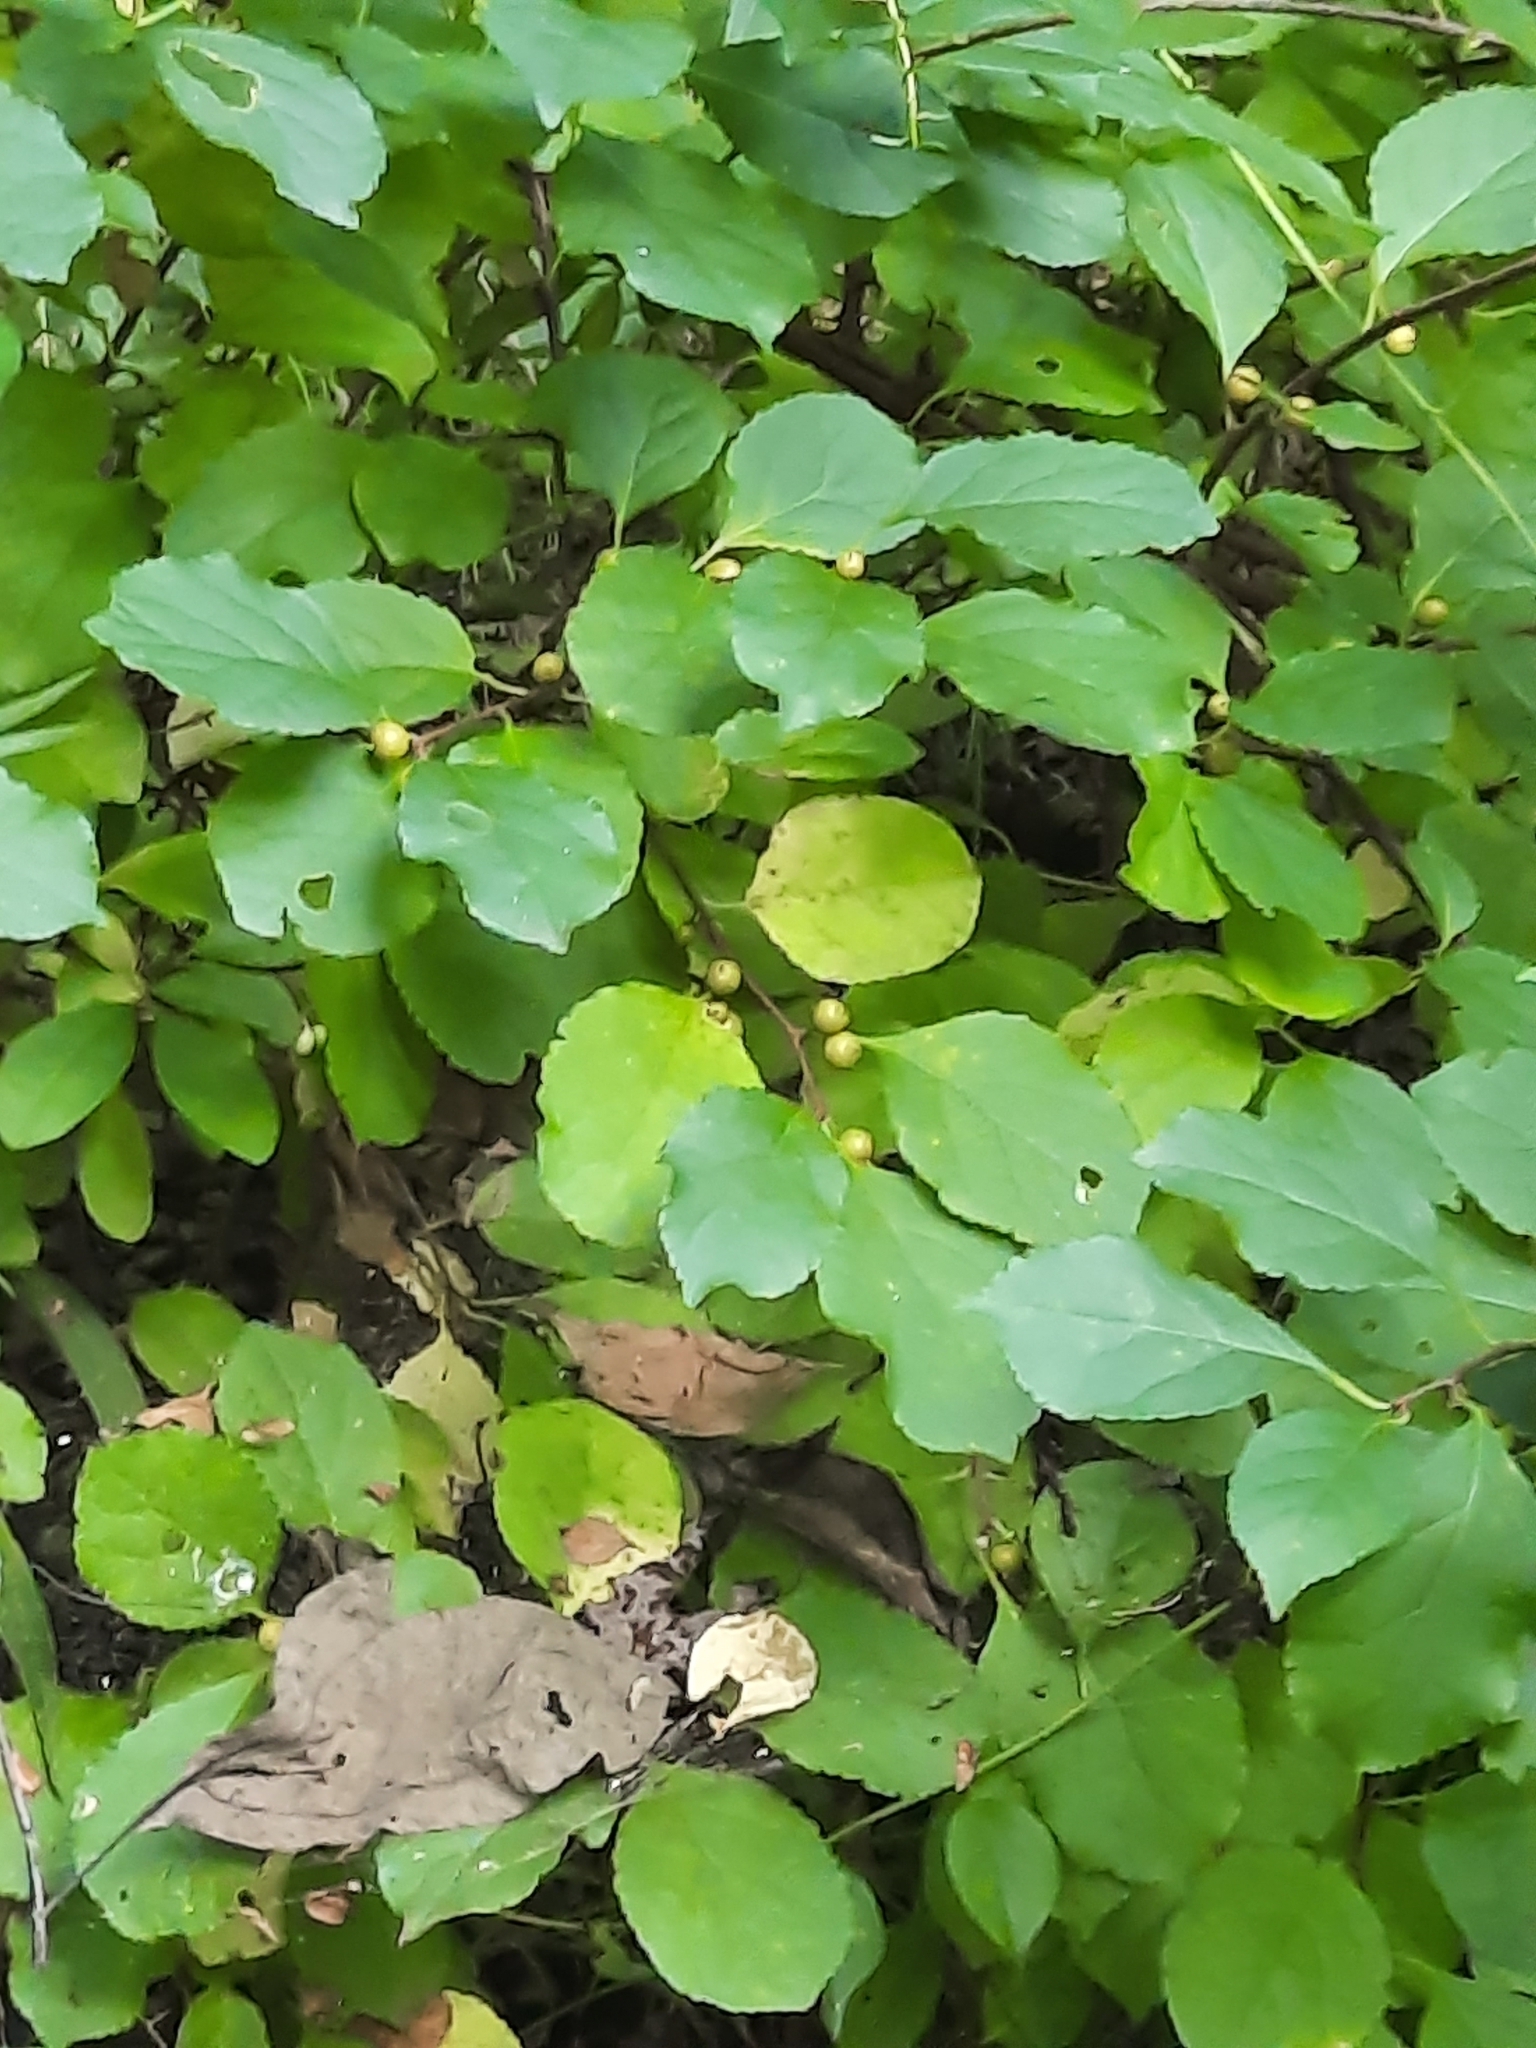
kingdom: Plantae
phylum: Tracheophyta
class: Magnoliopsida
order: Celastrales
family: Celastraceae
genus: Celastrus
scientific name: Celastrus orbiculatus
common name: Oriental bittersweet
